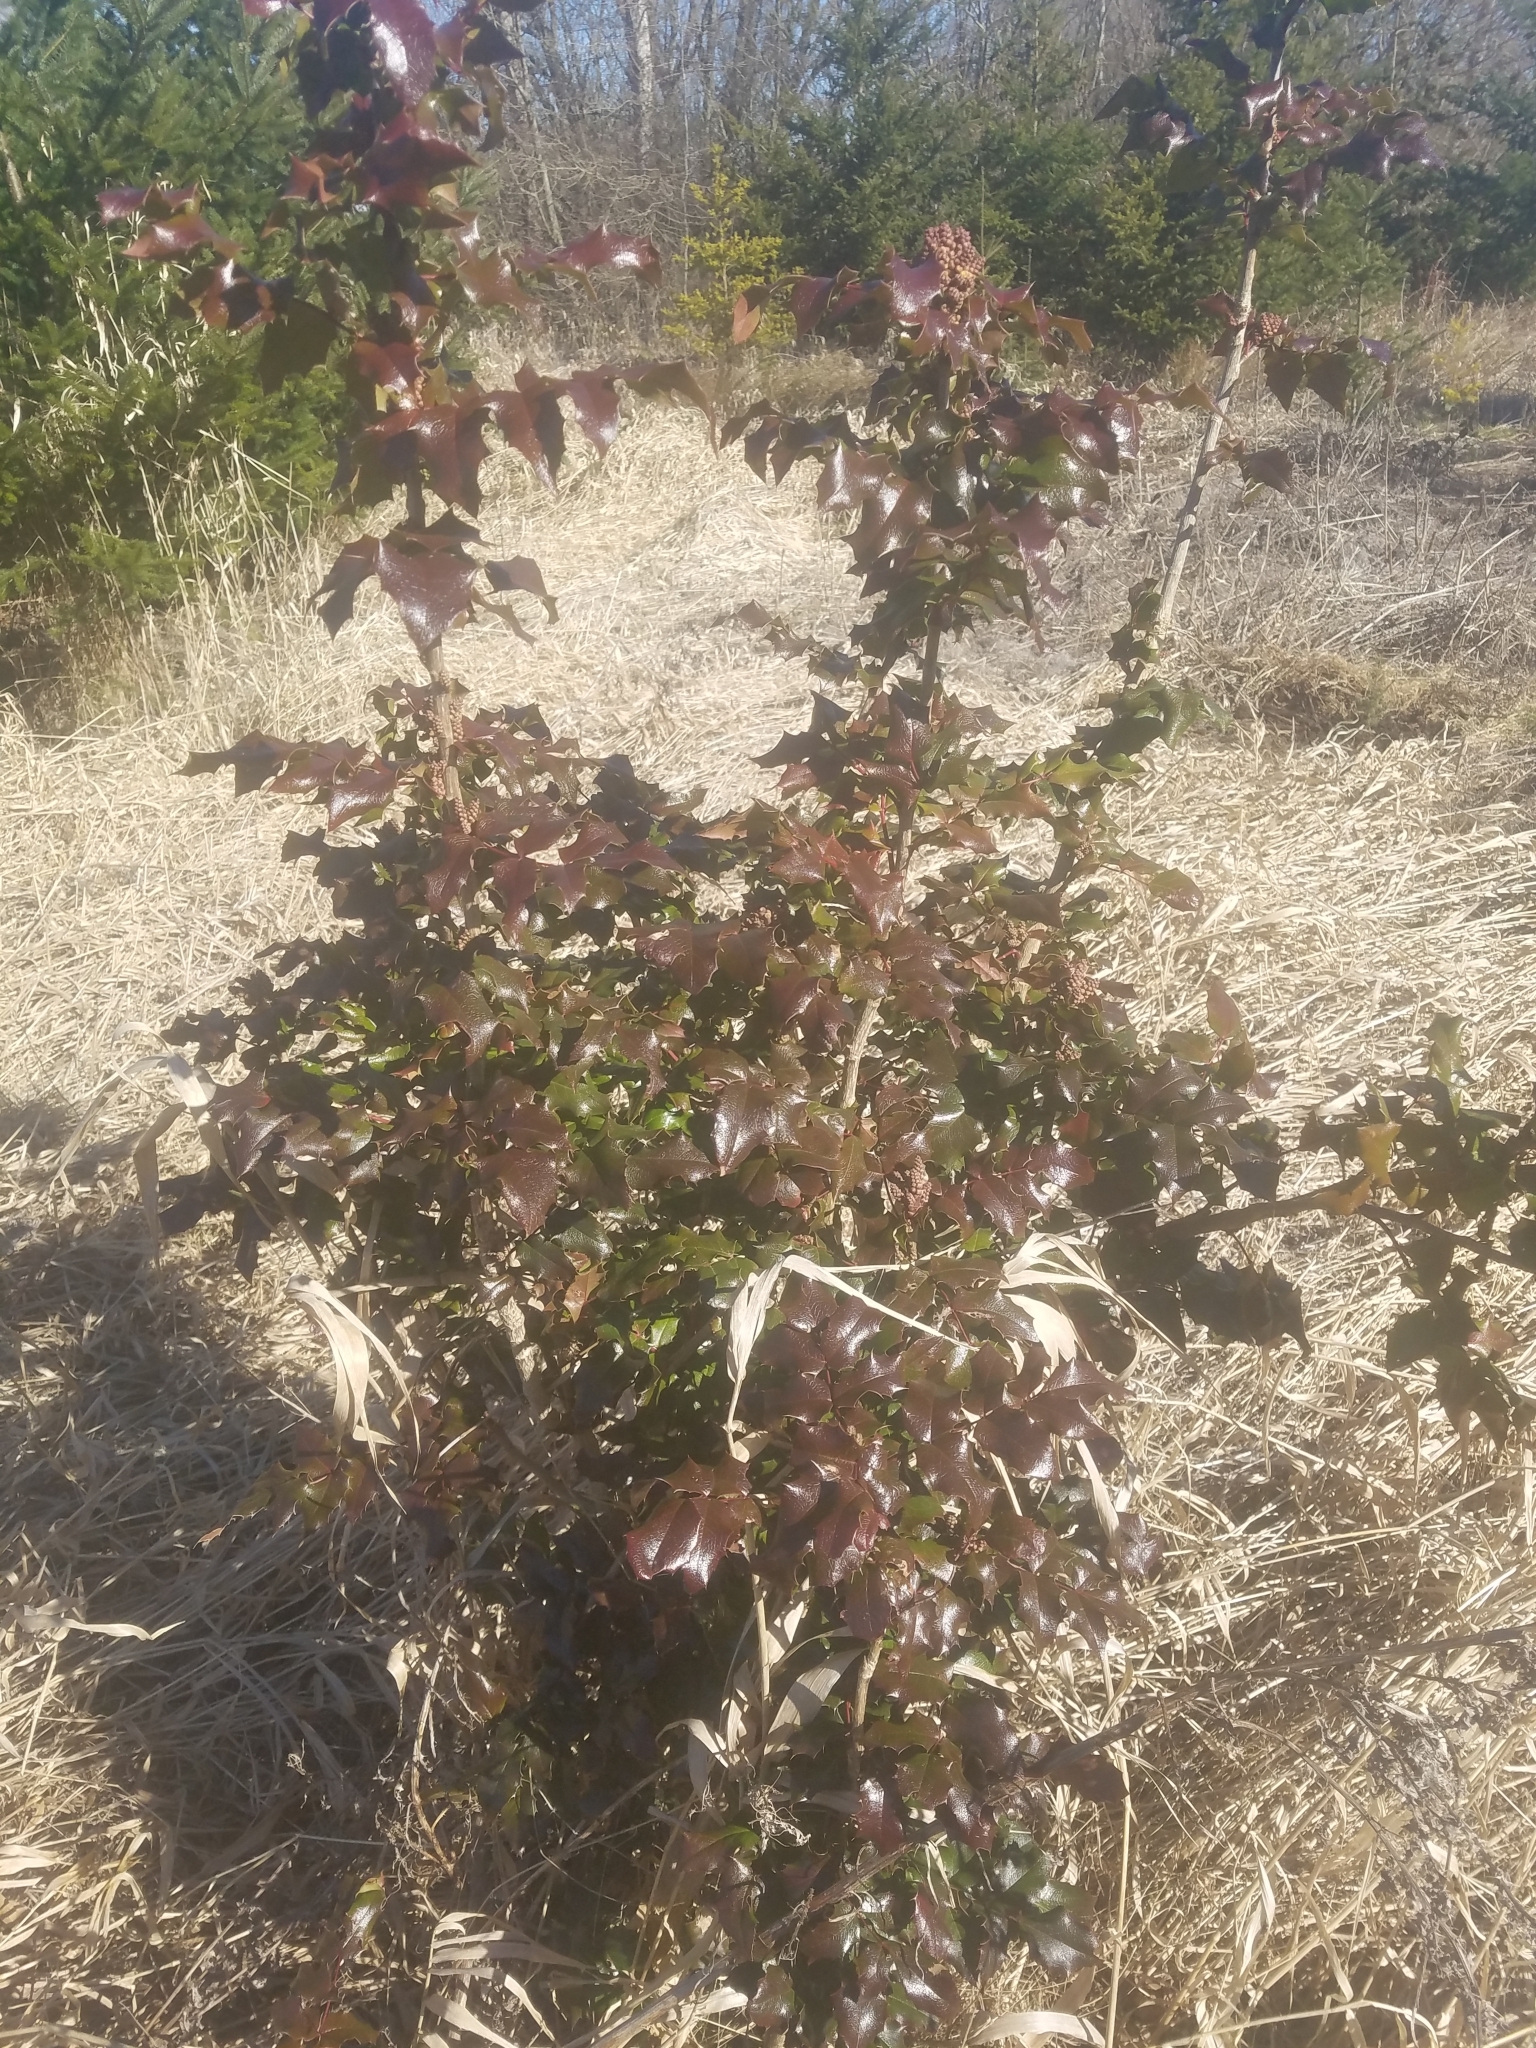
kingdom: Plantae
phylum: Tracheophyta
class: Magnoliopsida
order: Ranunculales
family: Berberidaceae
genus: Mahonia
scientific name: Mahonia aquifolium
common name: Oregon-grape
